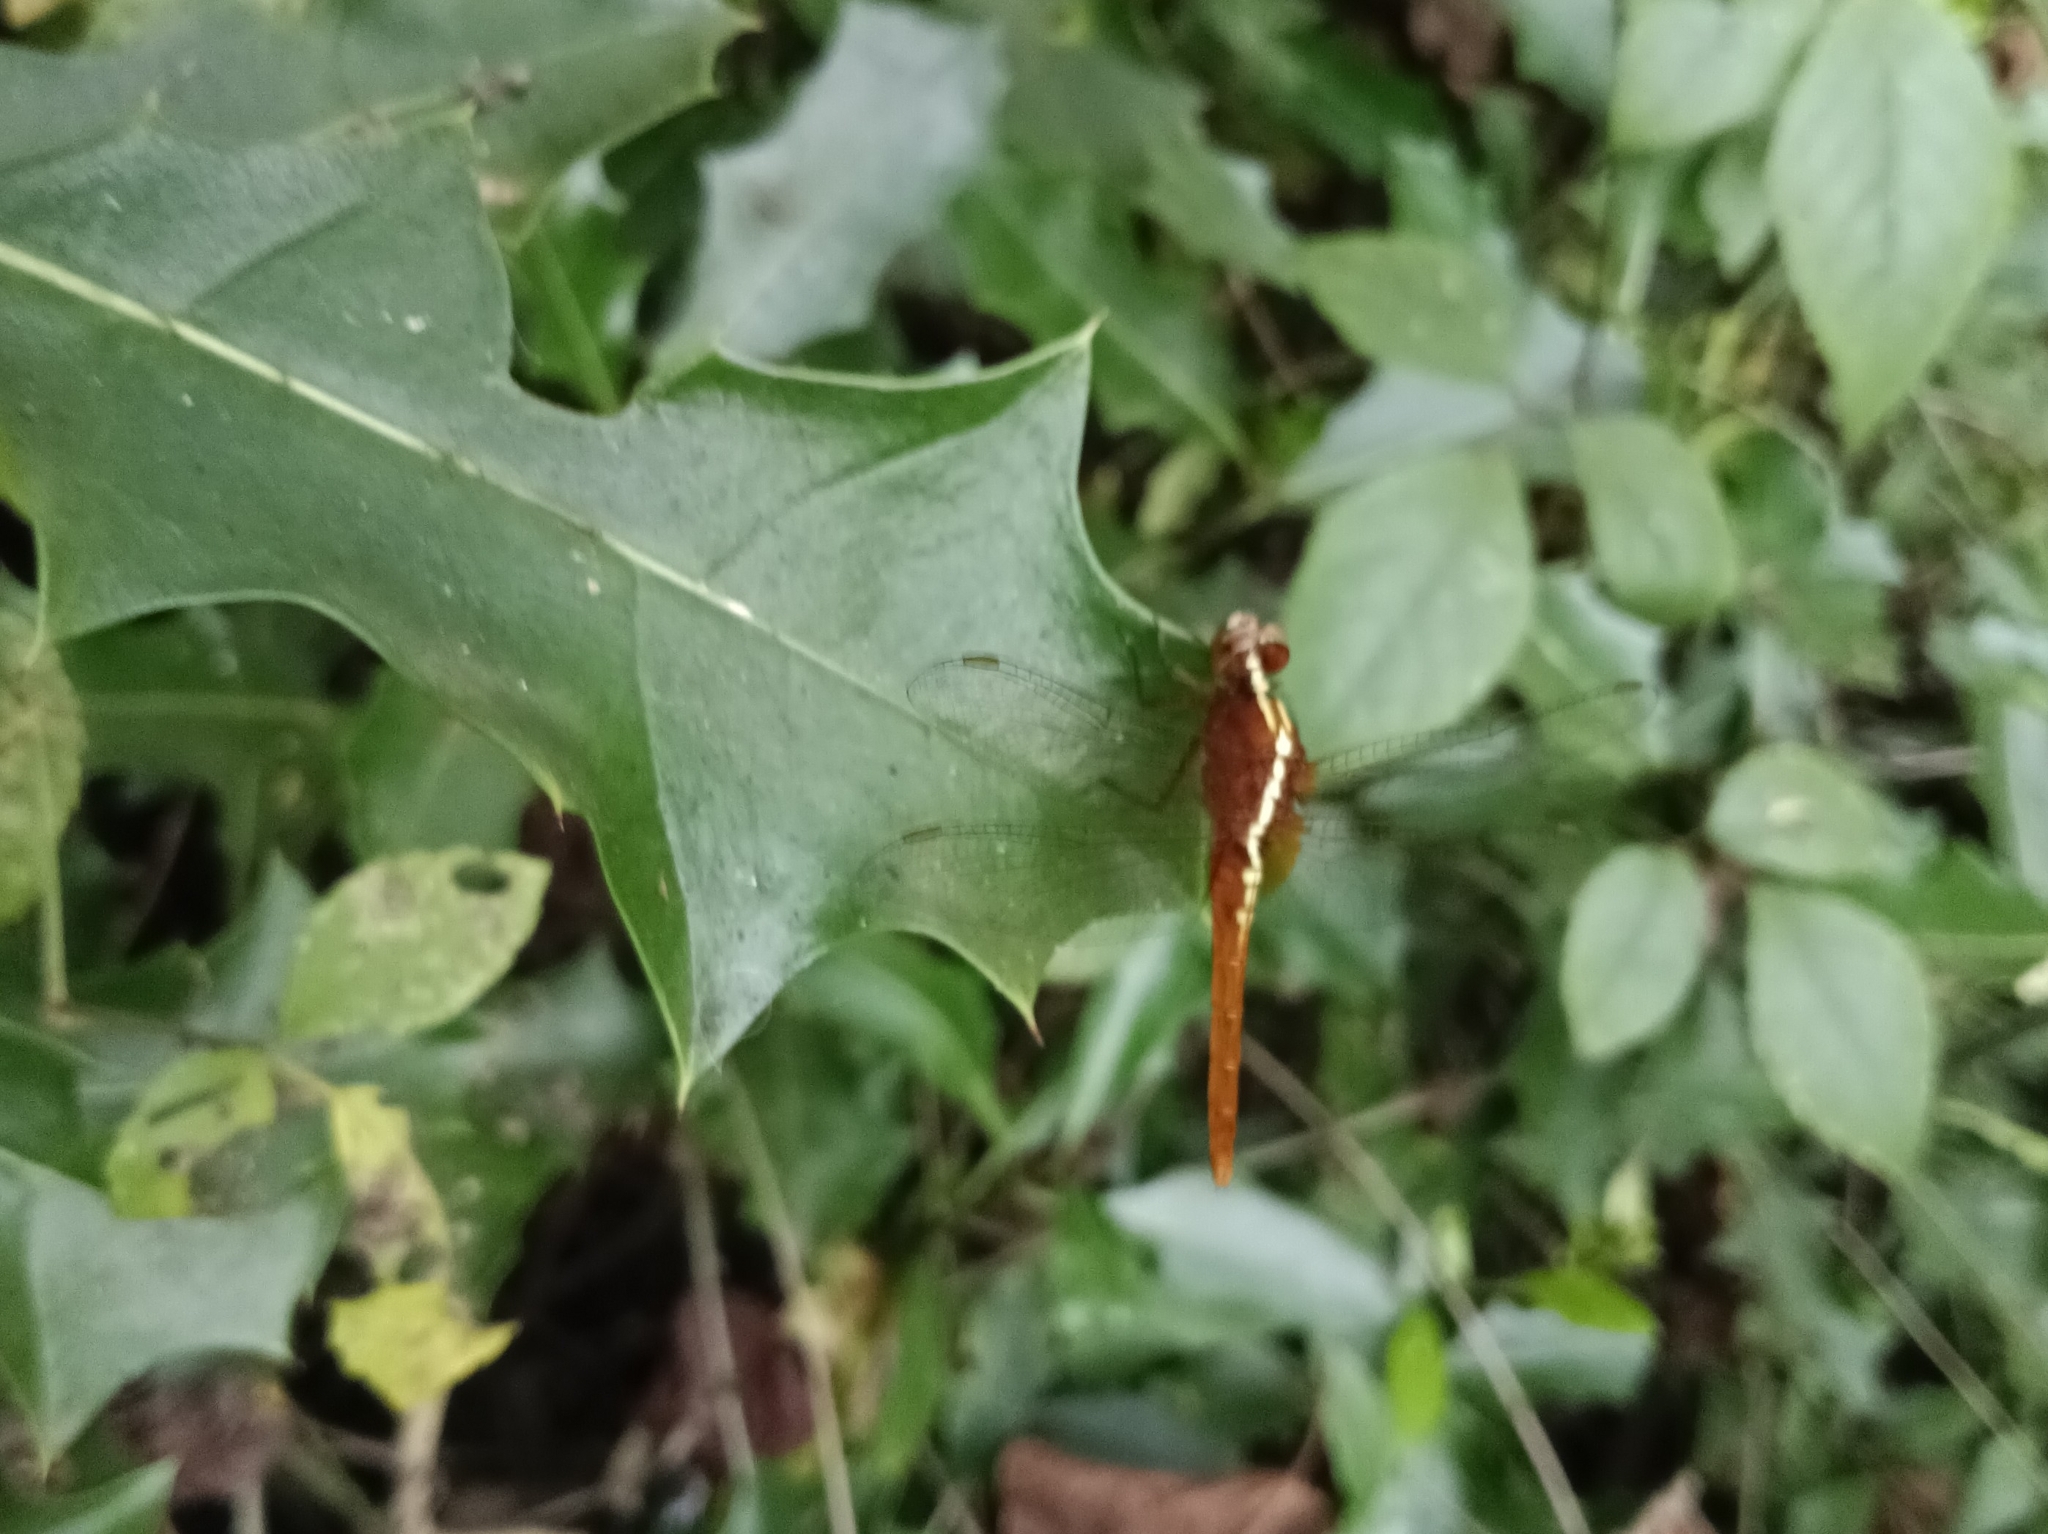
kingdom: Animalia
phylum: Arthropoda
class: Insecta
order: Odonata
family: Libellulidae
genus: Rhodothemis
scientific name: Rhodothemis rufa
